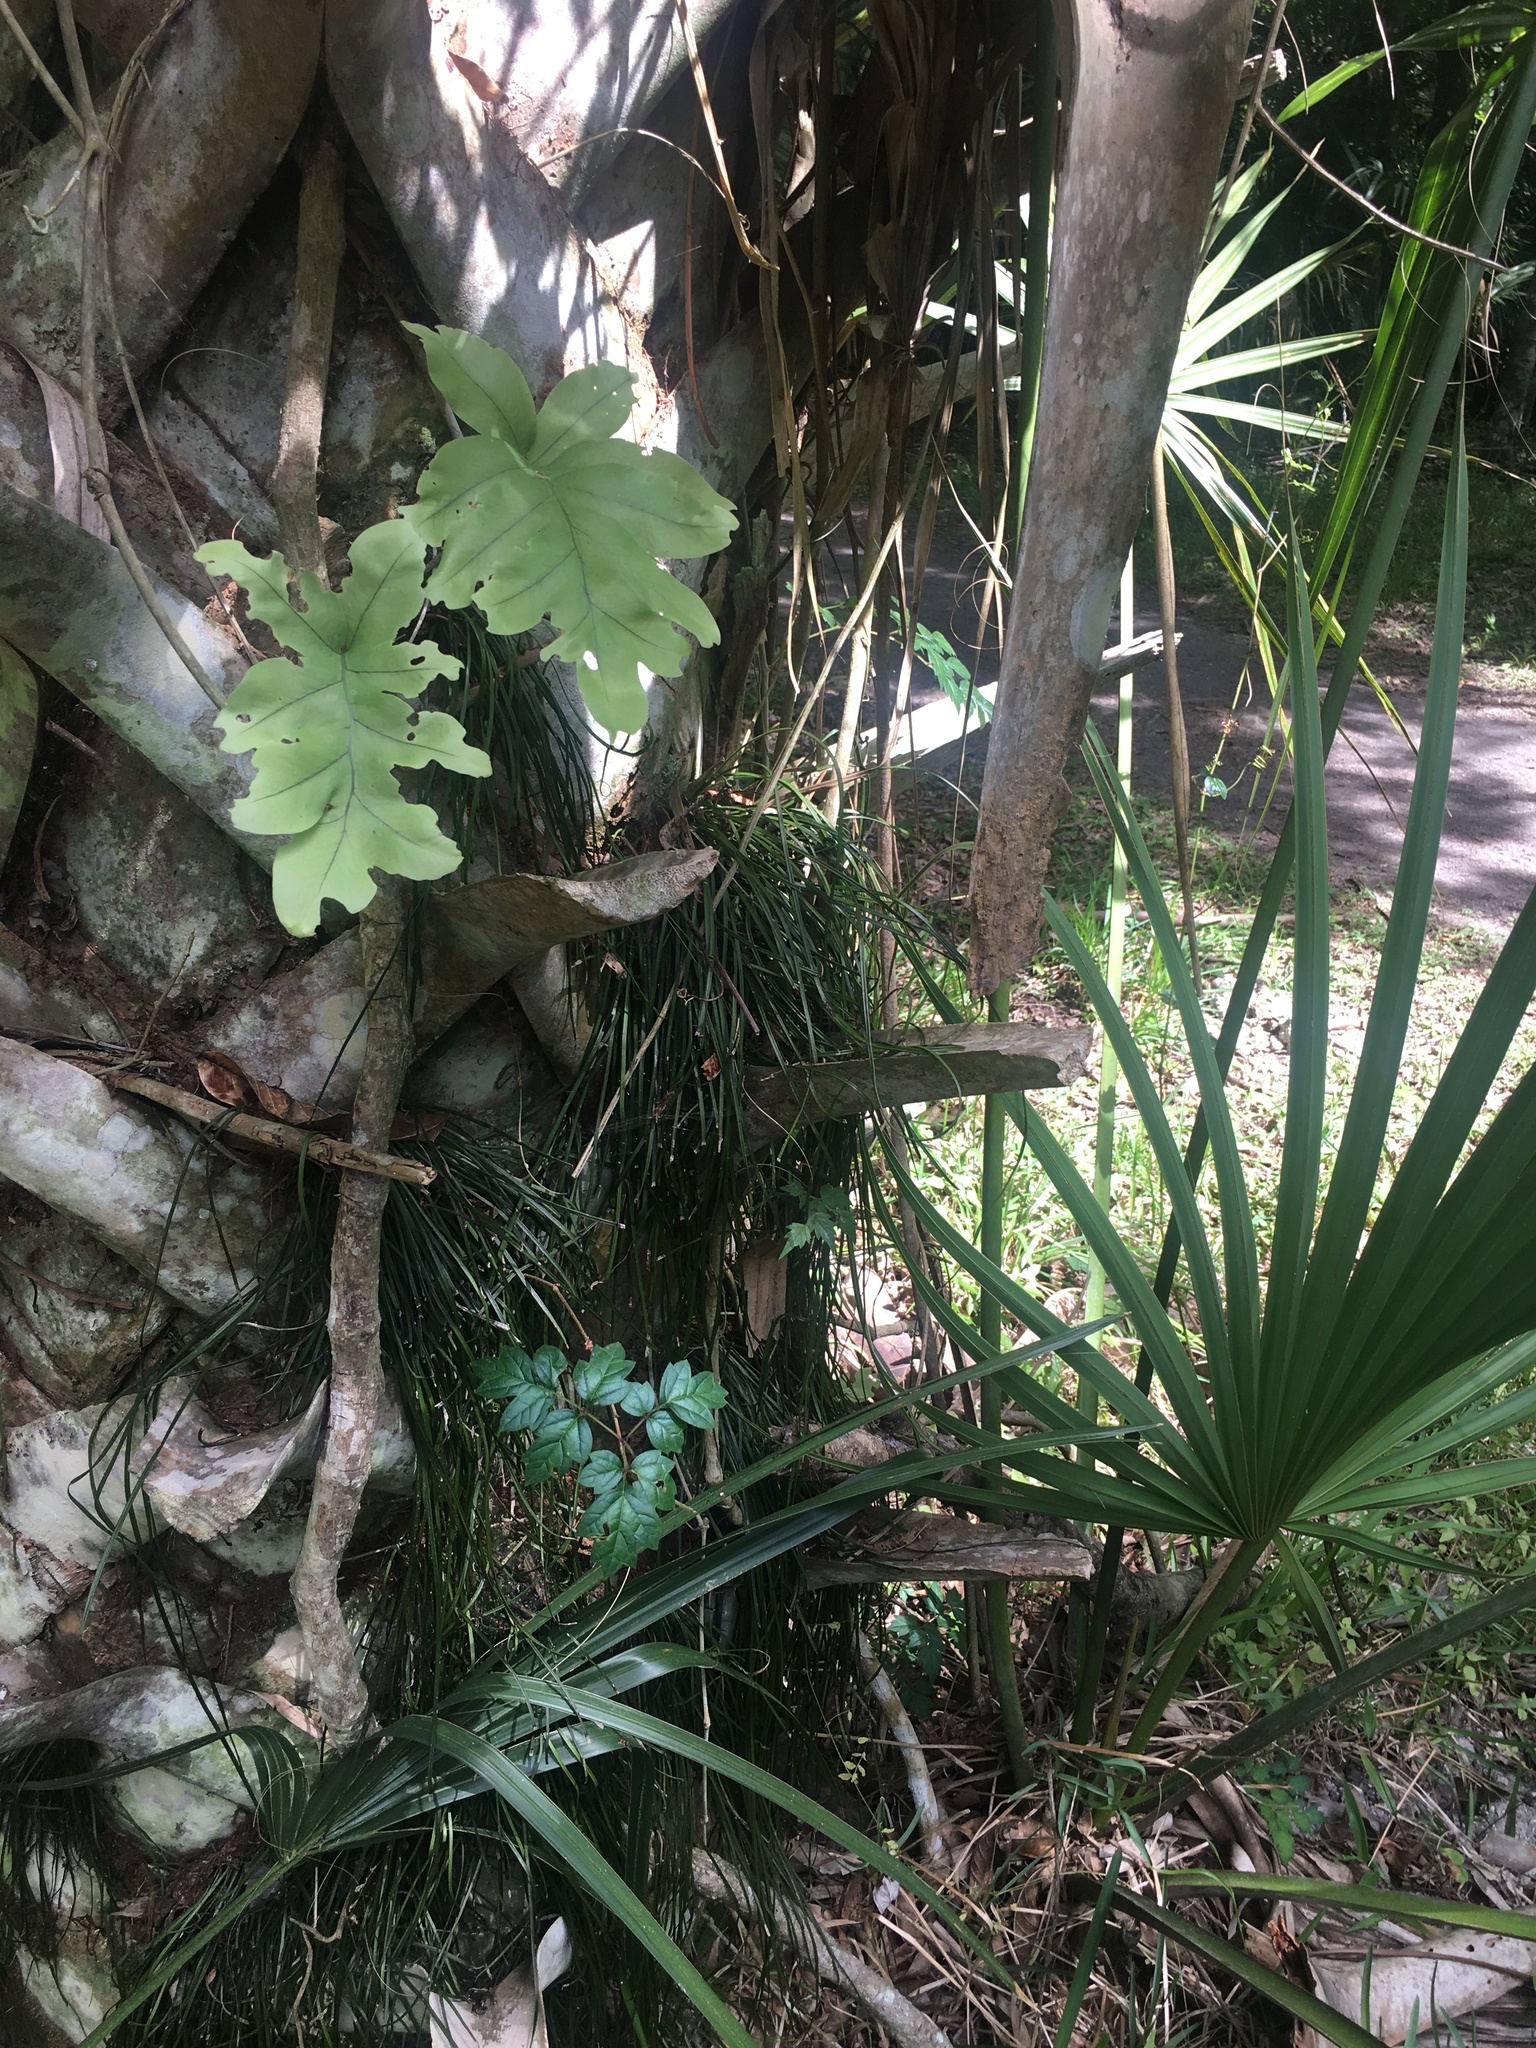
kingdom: Plantae
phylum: Tracheophyta
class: Polypodiopsida
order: Polypodiales
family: Polypodiaceae
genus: Phlebodium
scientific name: Phlebodium aureum
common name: Gold-foot fern
